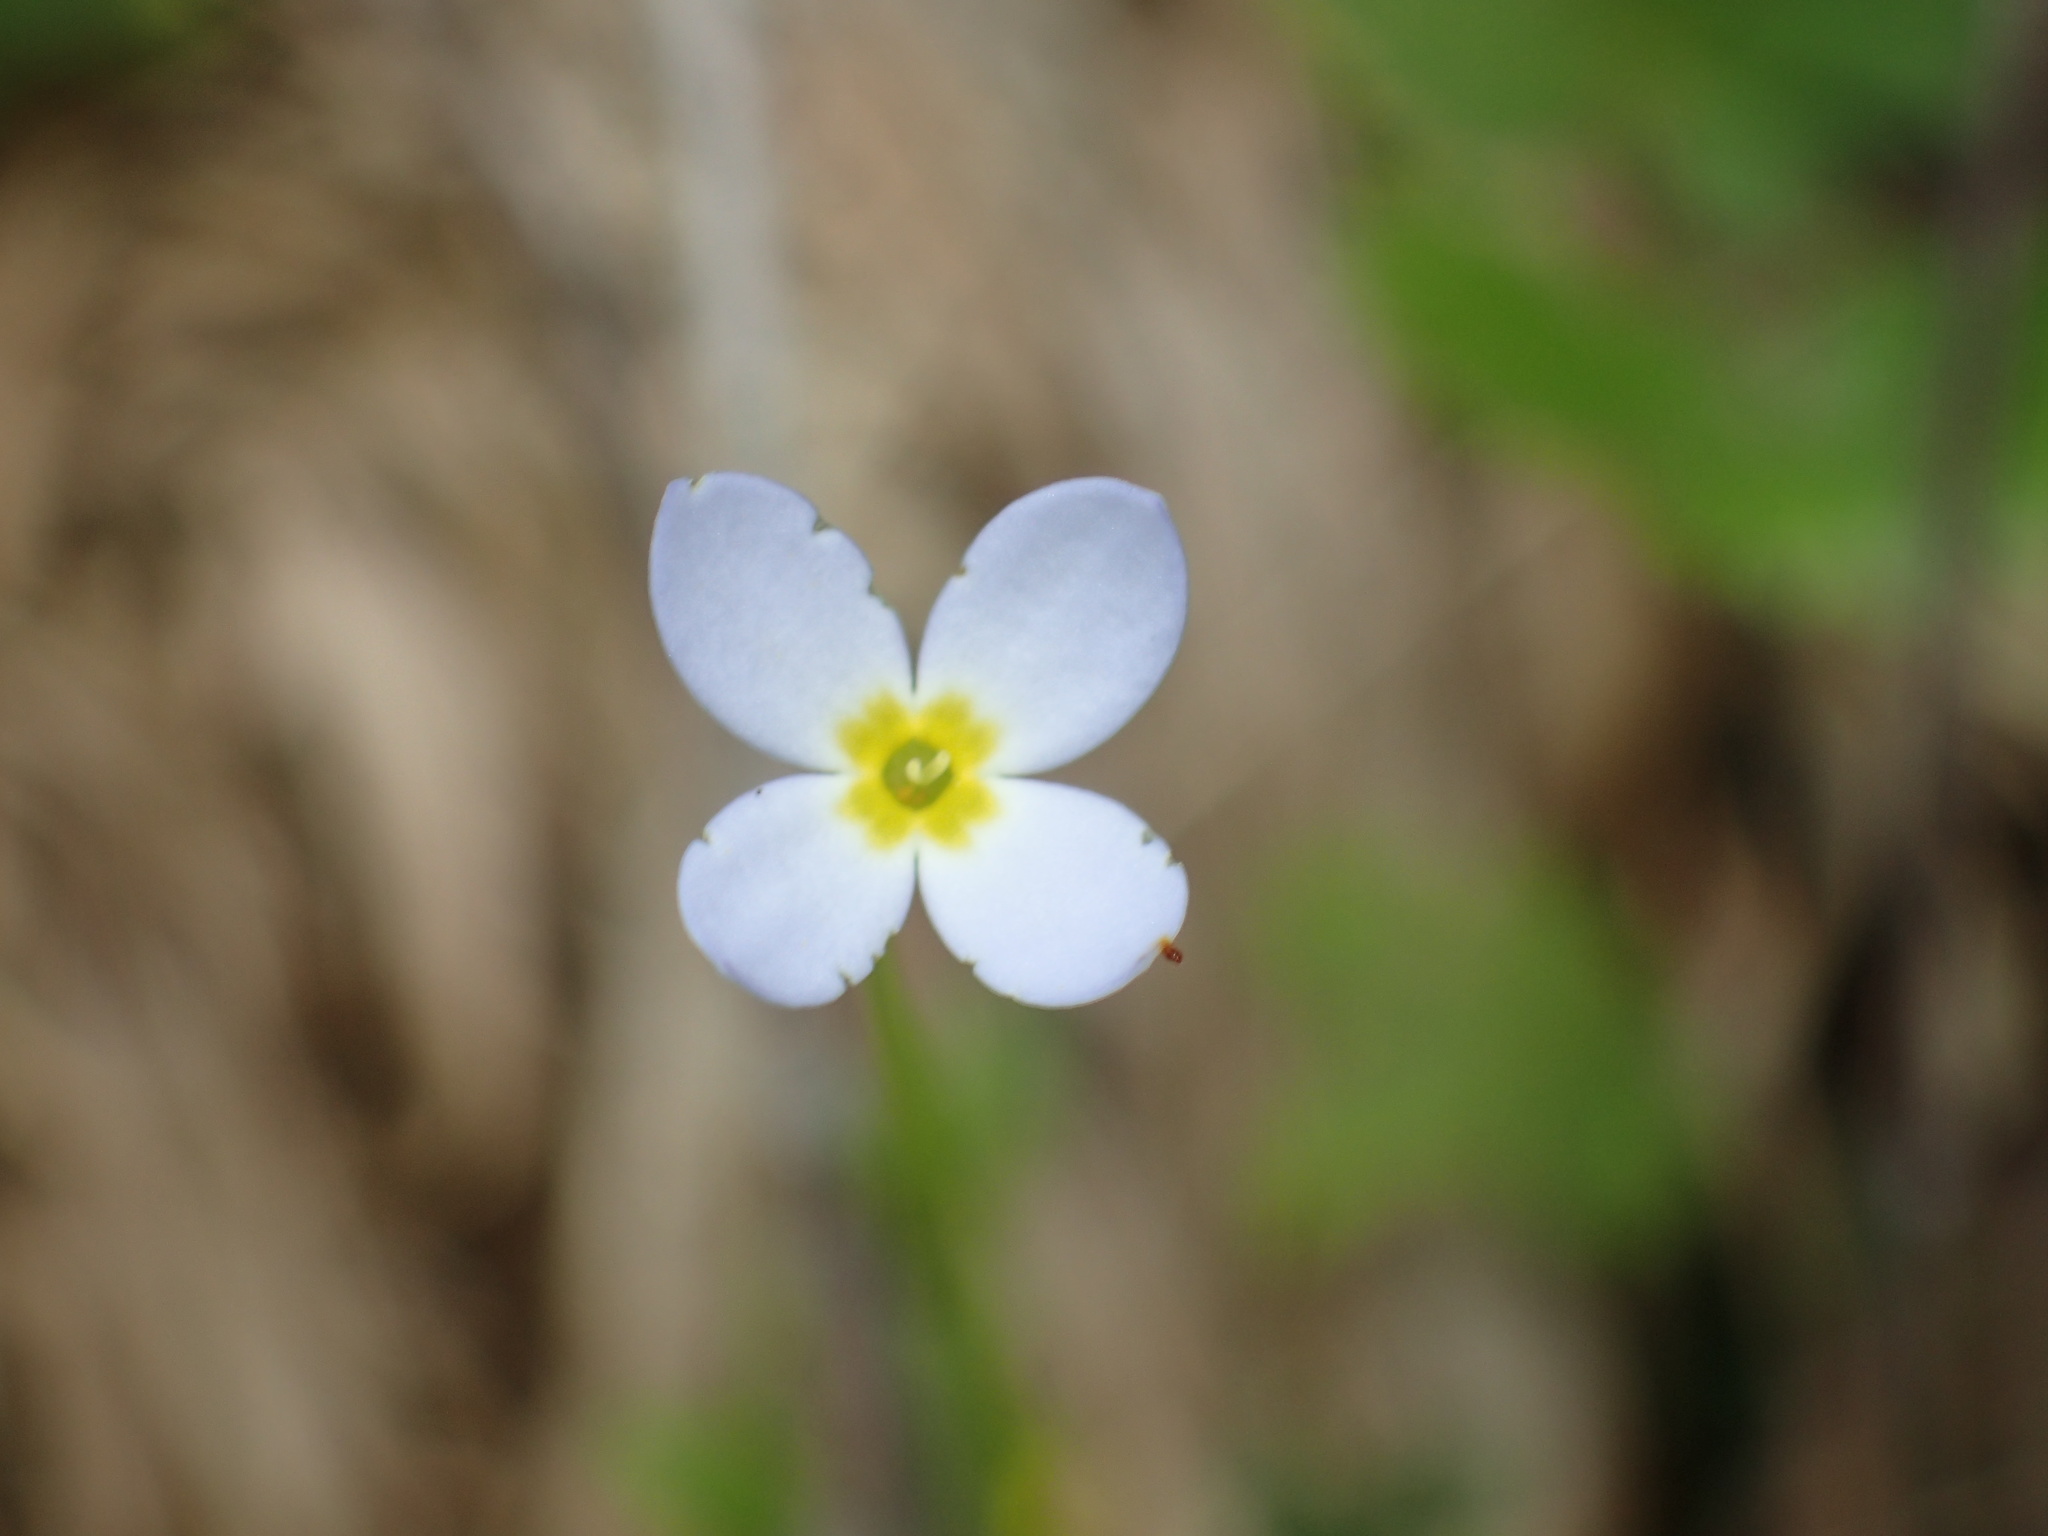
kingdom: Plantae
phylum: Tracheophyta
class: Magnoliopsida
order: Gentianales
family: Rubiaceae
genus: Houstonia
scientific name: Houstonia caerulea
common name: Bluets
